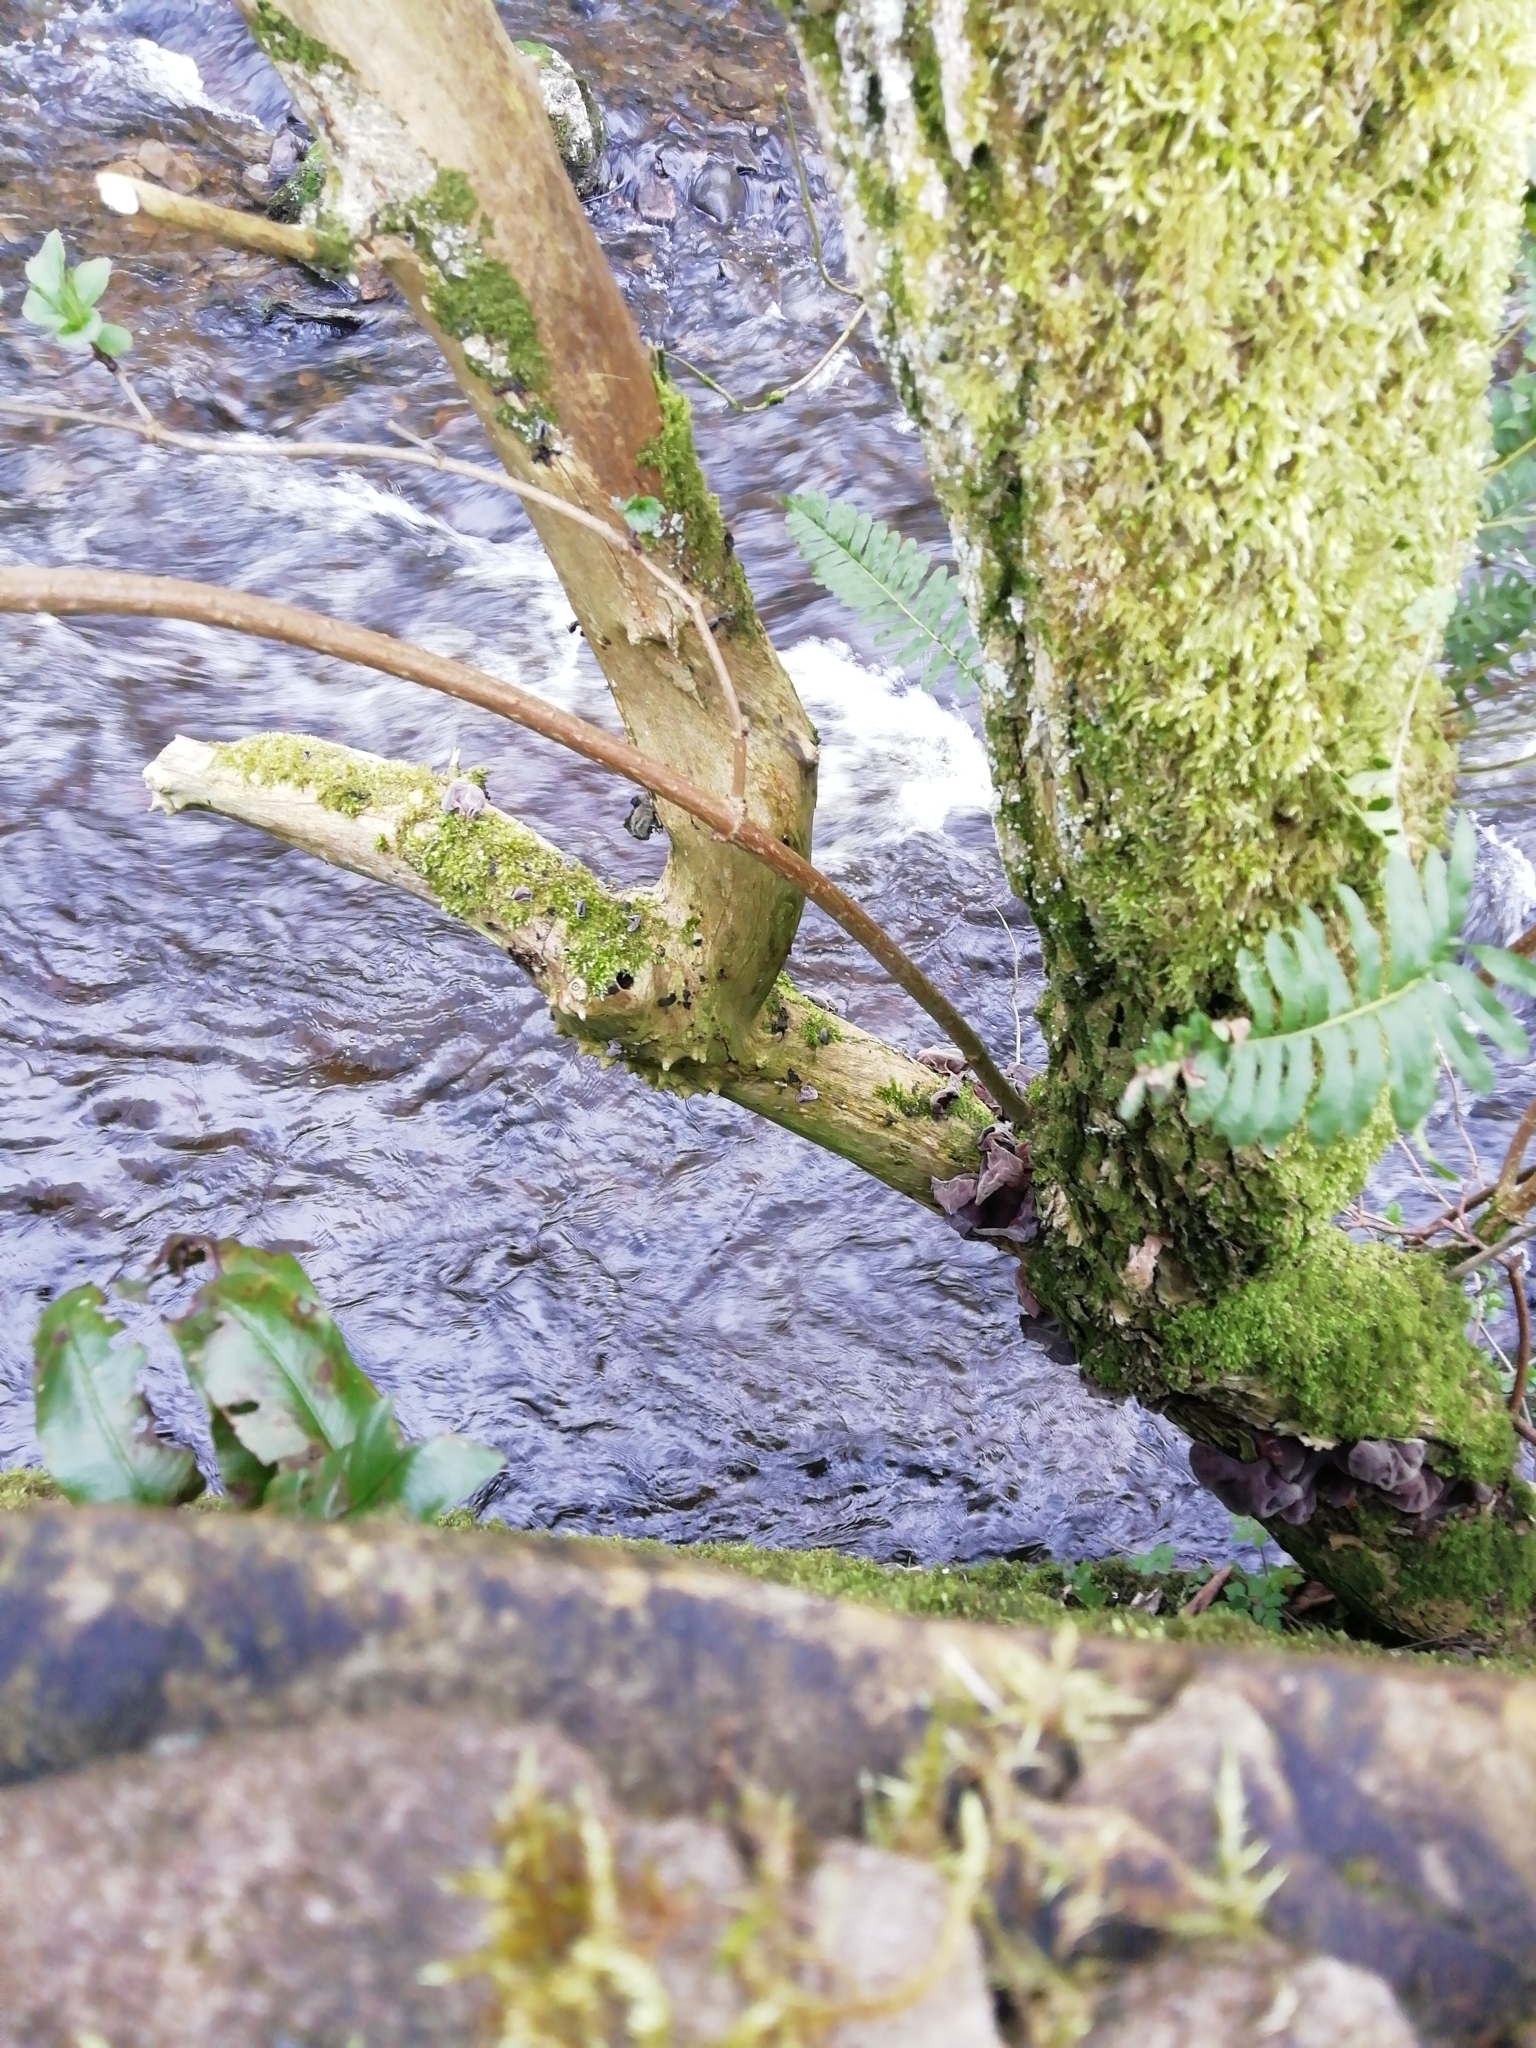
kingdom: Fungi
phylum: Basidiomycota
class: Agaricomycetes
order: Auriculariales
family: Auriculariaceae
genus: Auricularia
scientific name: Auricularia auricula-judae
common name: Jelly ear
